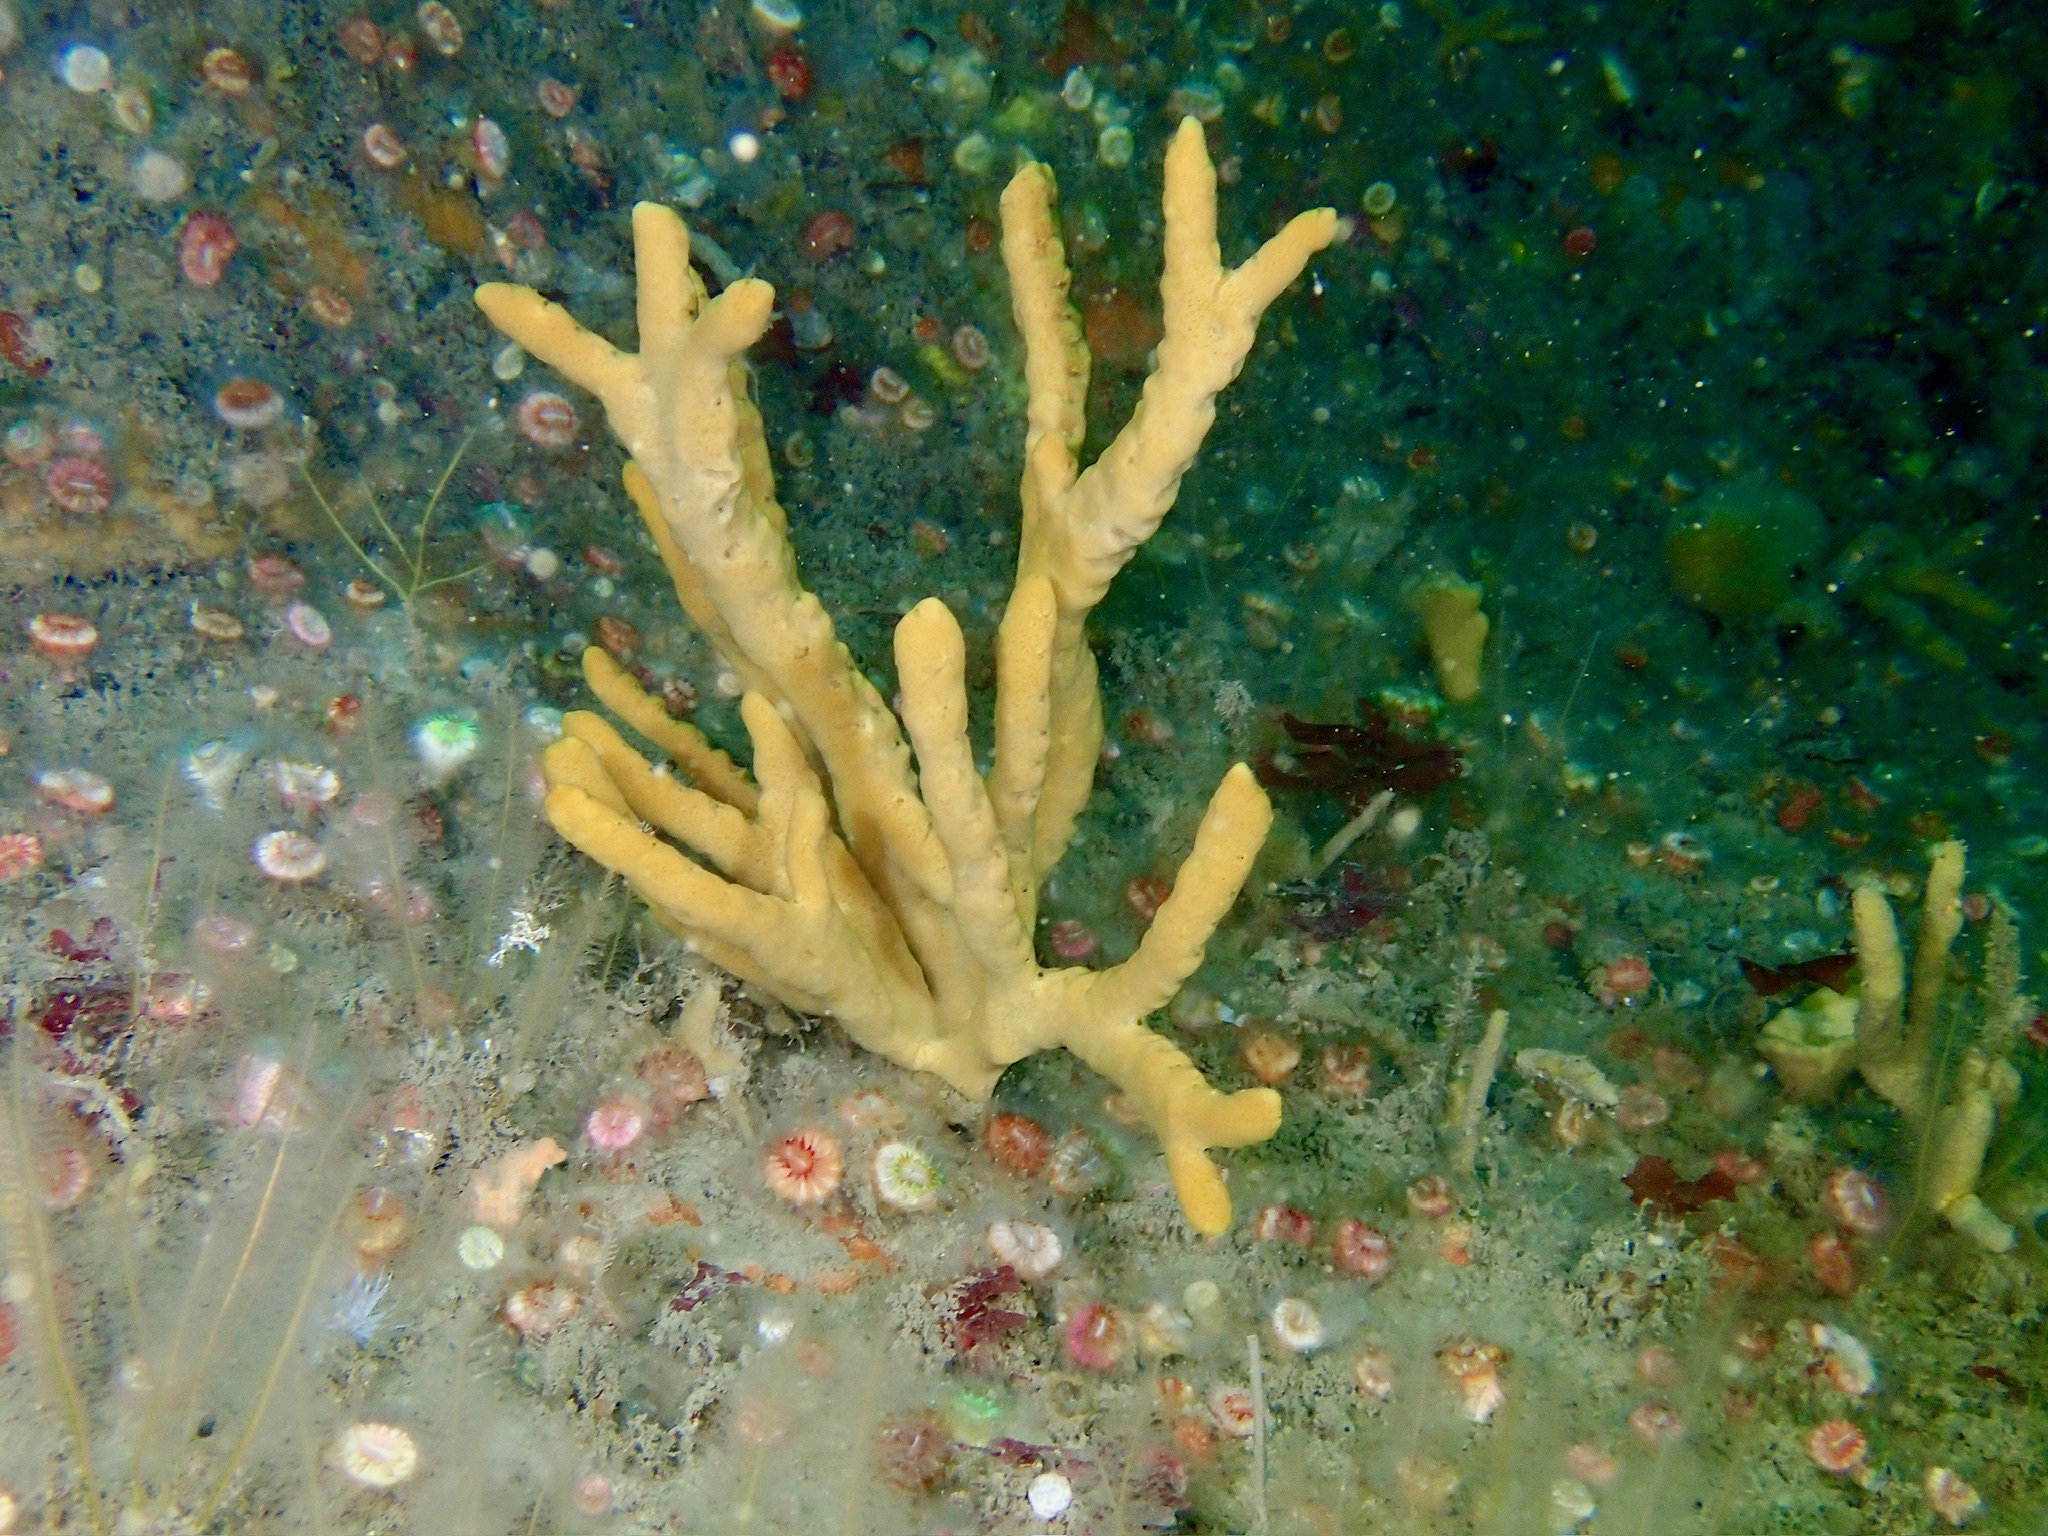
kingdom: Animalia
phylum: Porifera
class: Demospongiae
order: Axinellida
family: Axinellidae
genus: Axinella
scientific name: Axinella dissimilis
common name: Branching sponge
